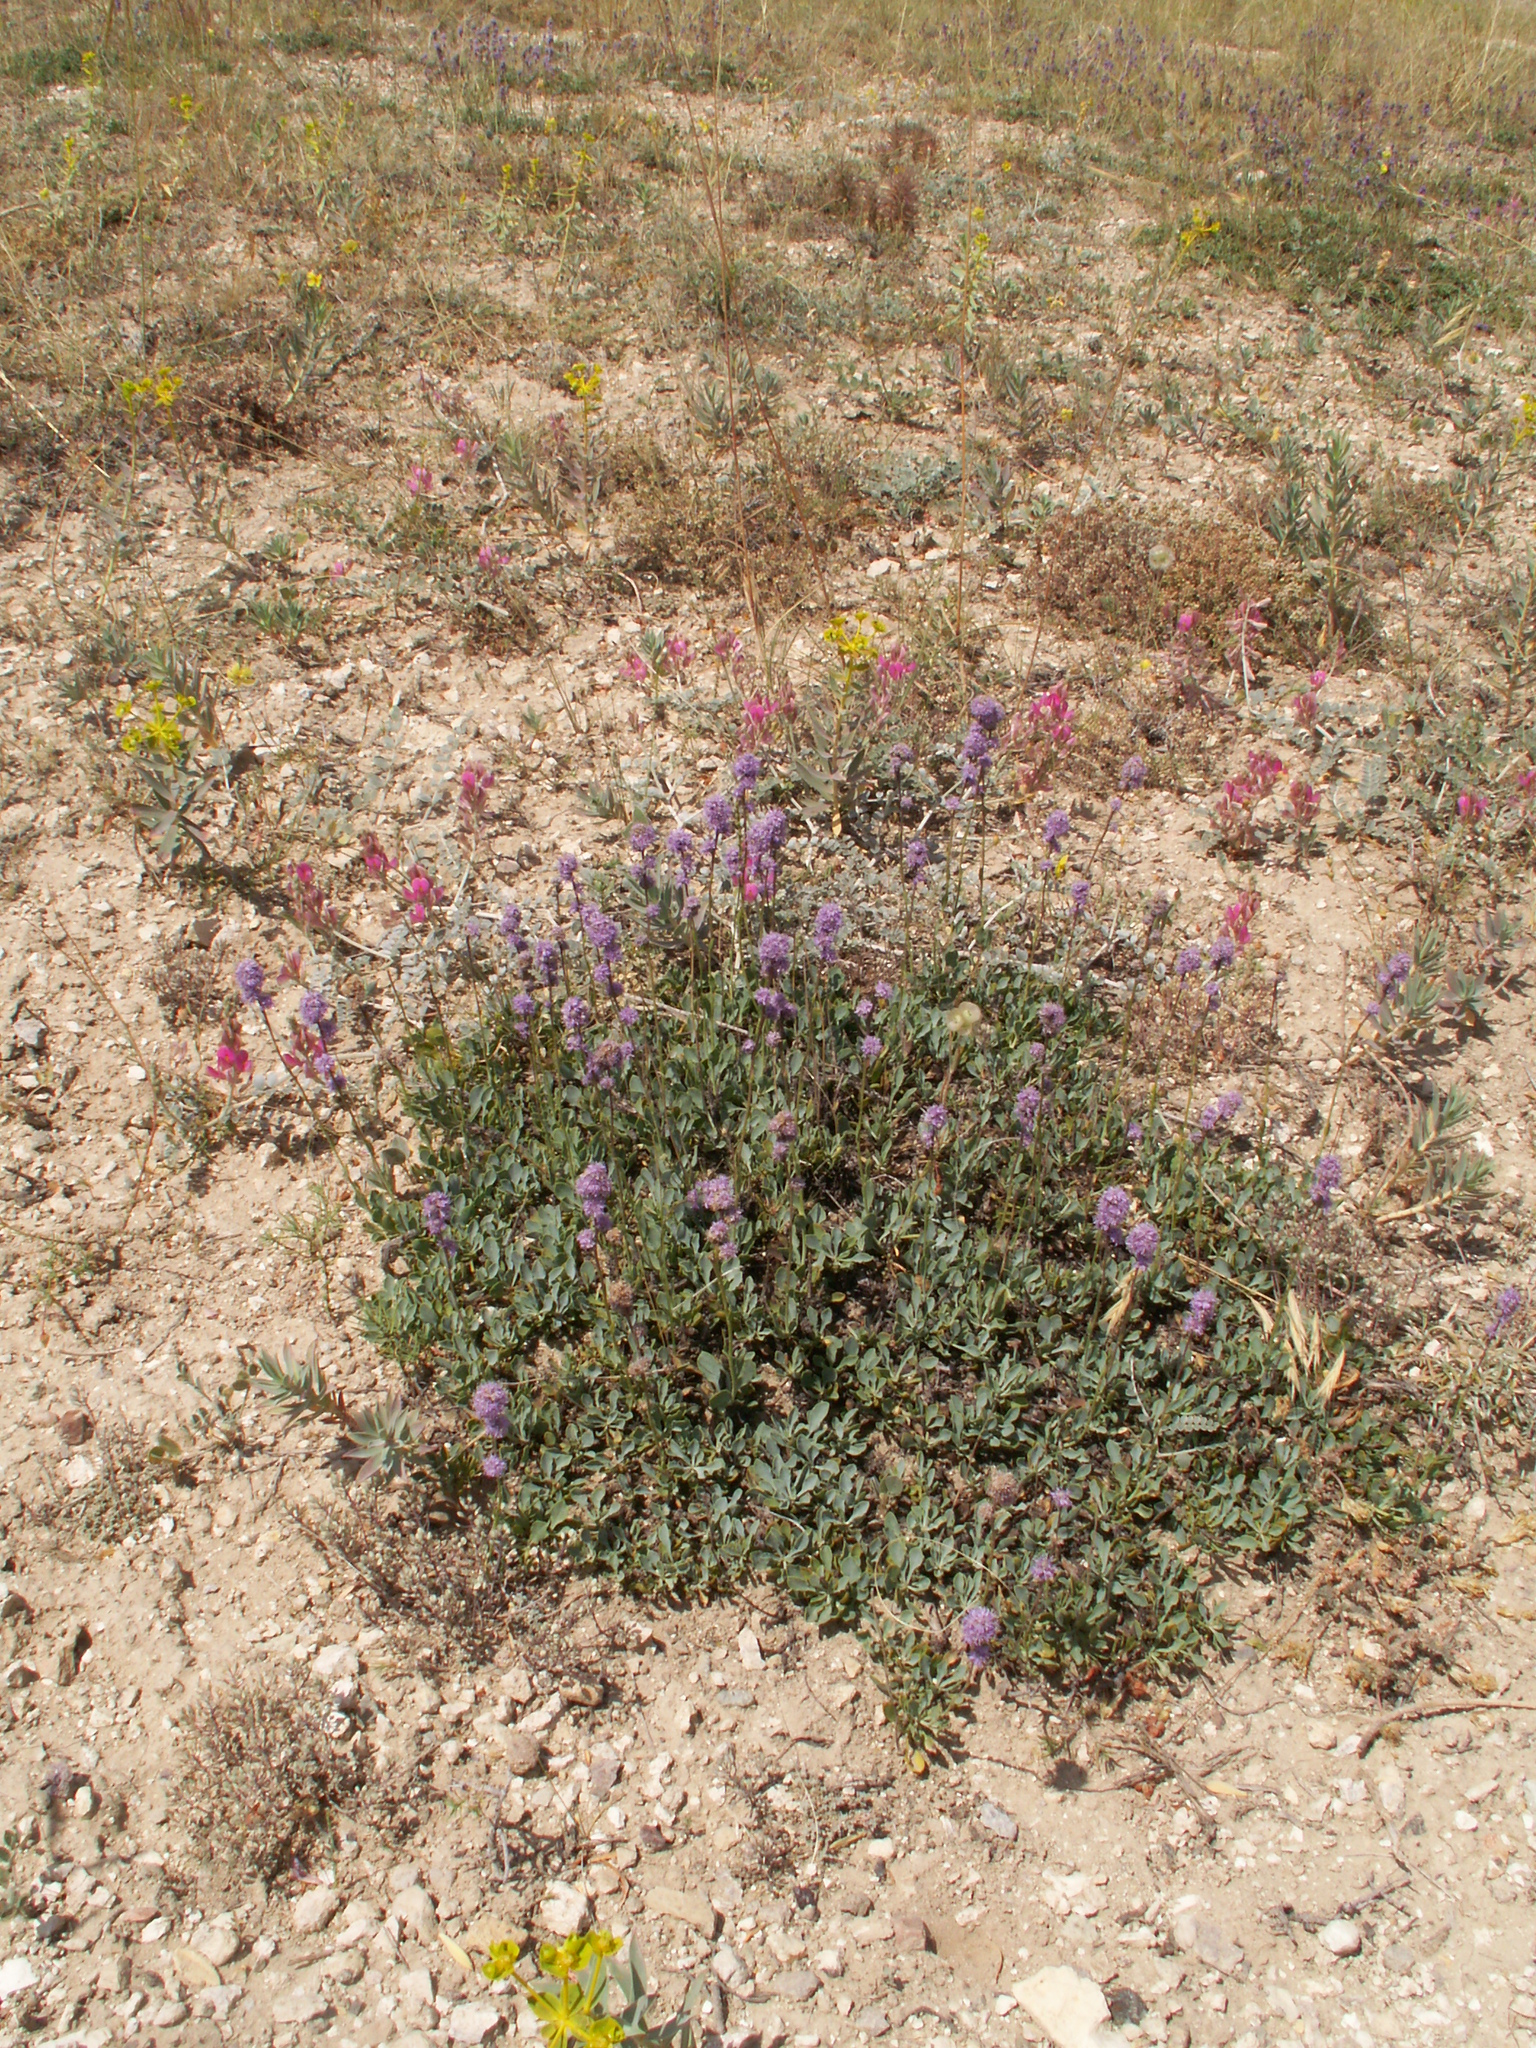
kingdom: Plantae
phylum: Tracheophyta
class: Magnoliopsida
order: Lamiales
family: Plantaginaceae
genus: Globularia
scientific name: Globularia orientalis
